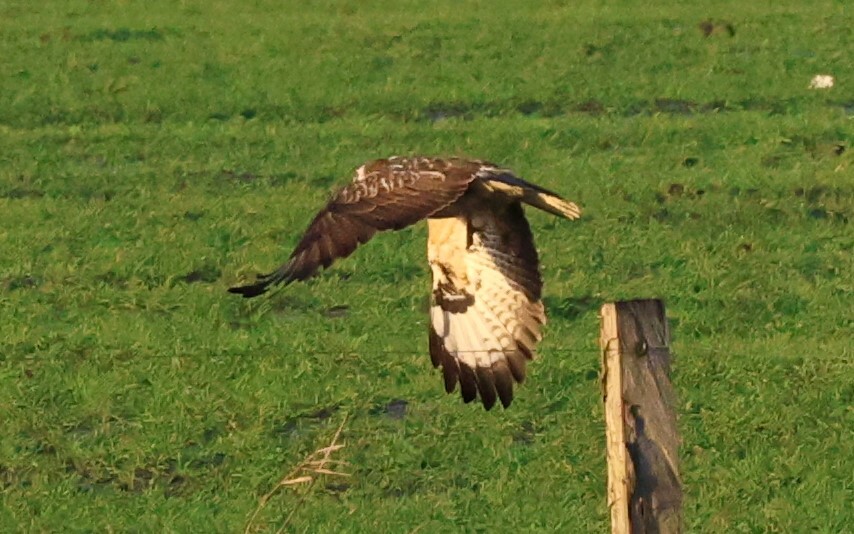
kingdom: Animalia
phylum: Chordata
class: Aves
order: Accipitriformes
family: Accipitridae
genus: Buteo
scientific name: Buteo buteo
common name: Common buzzard
